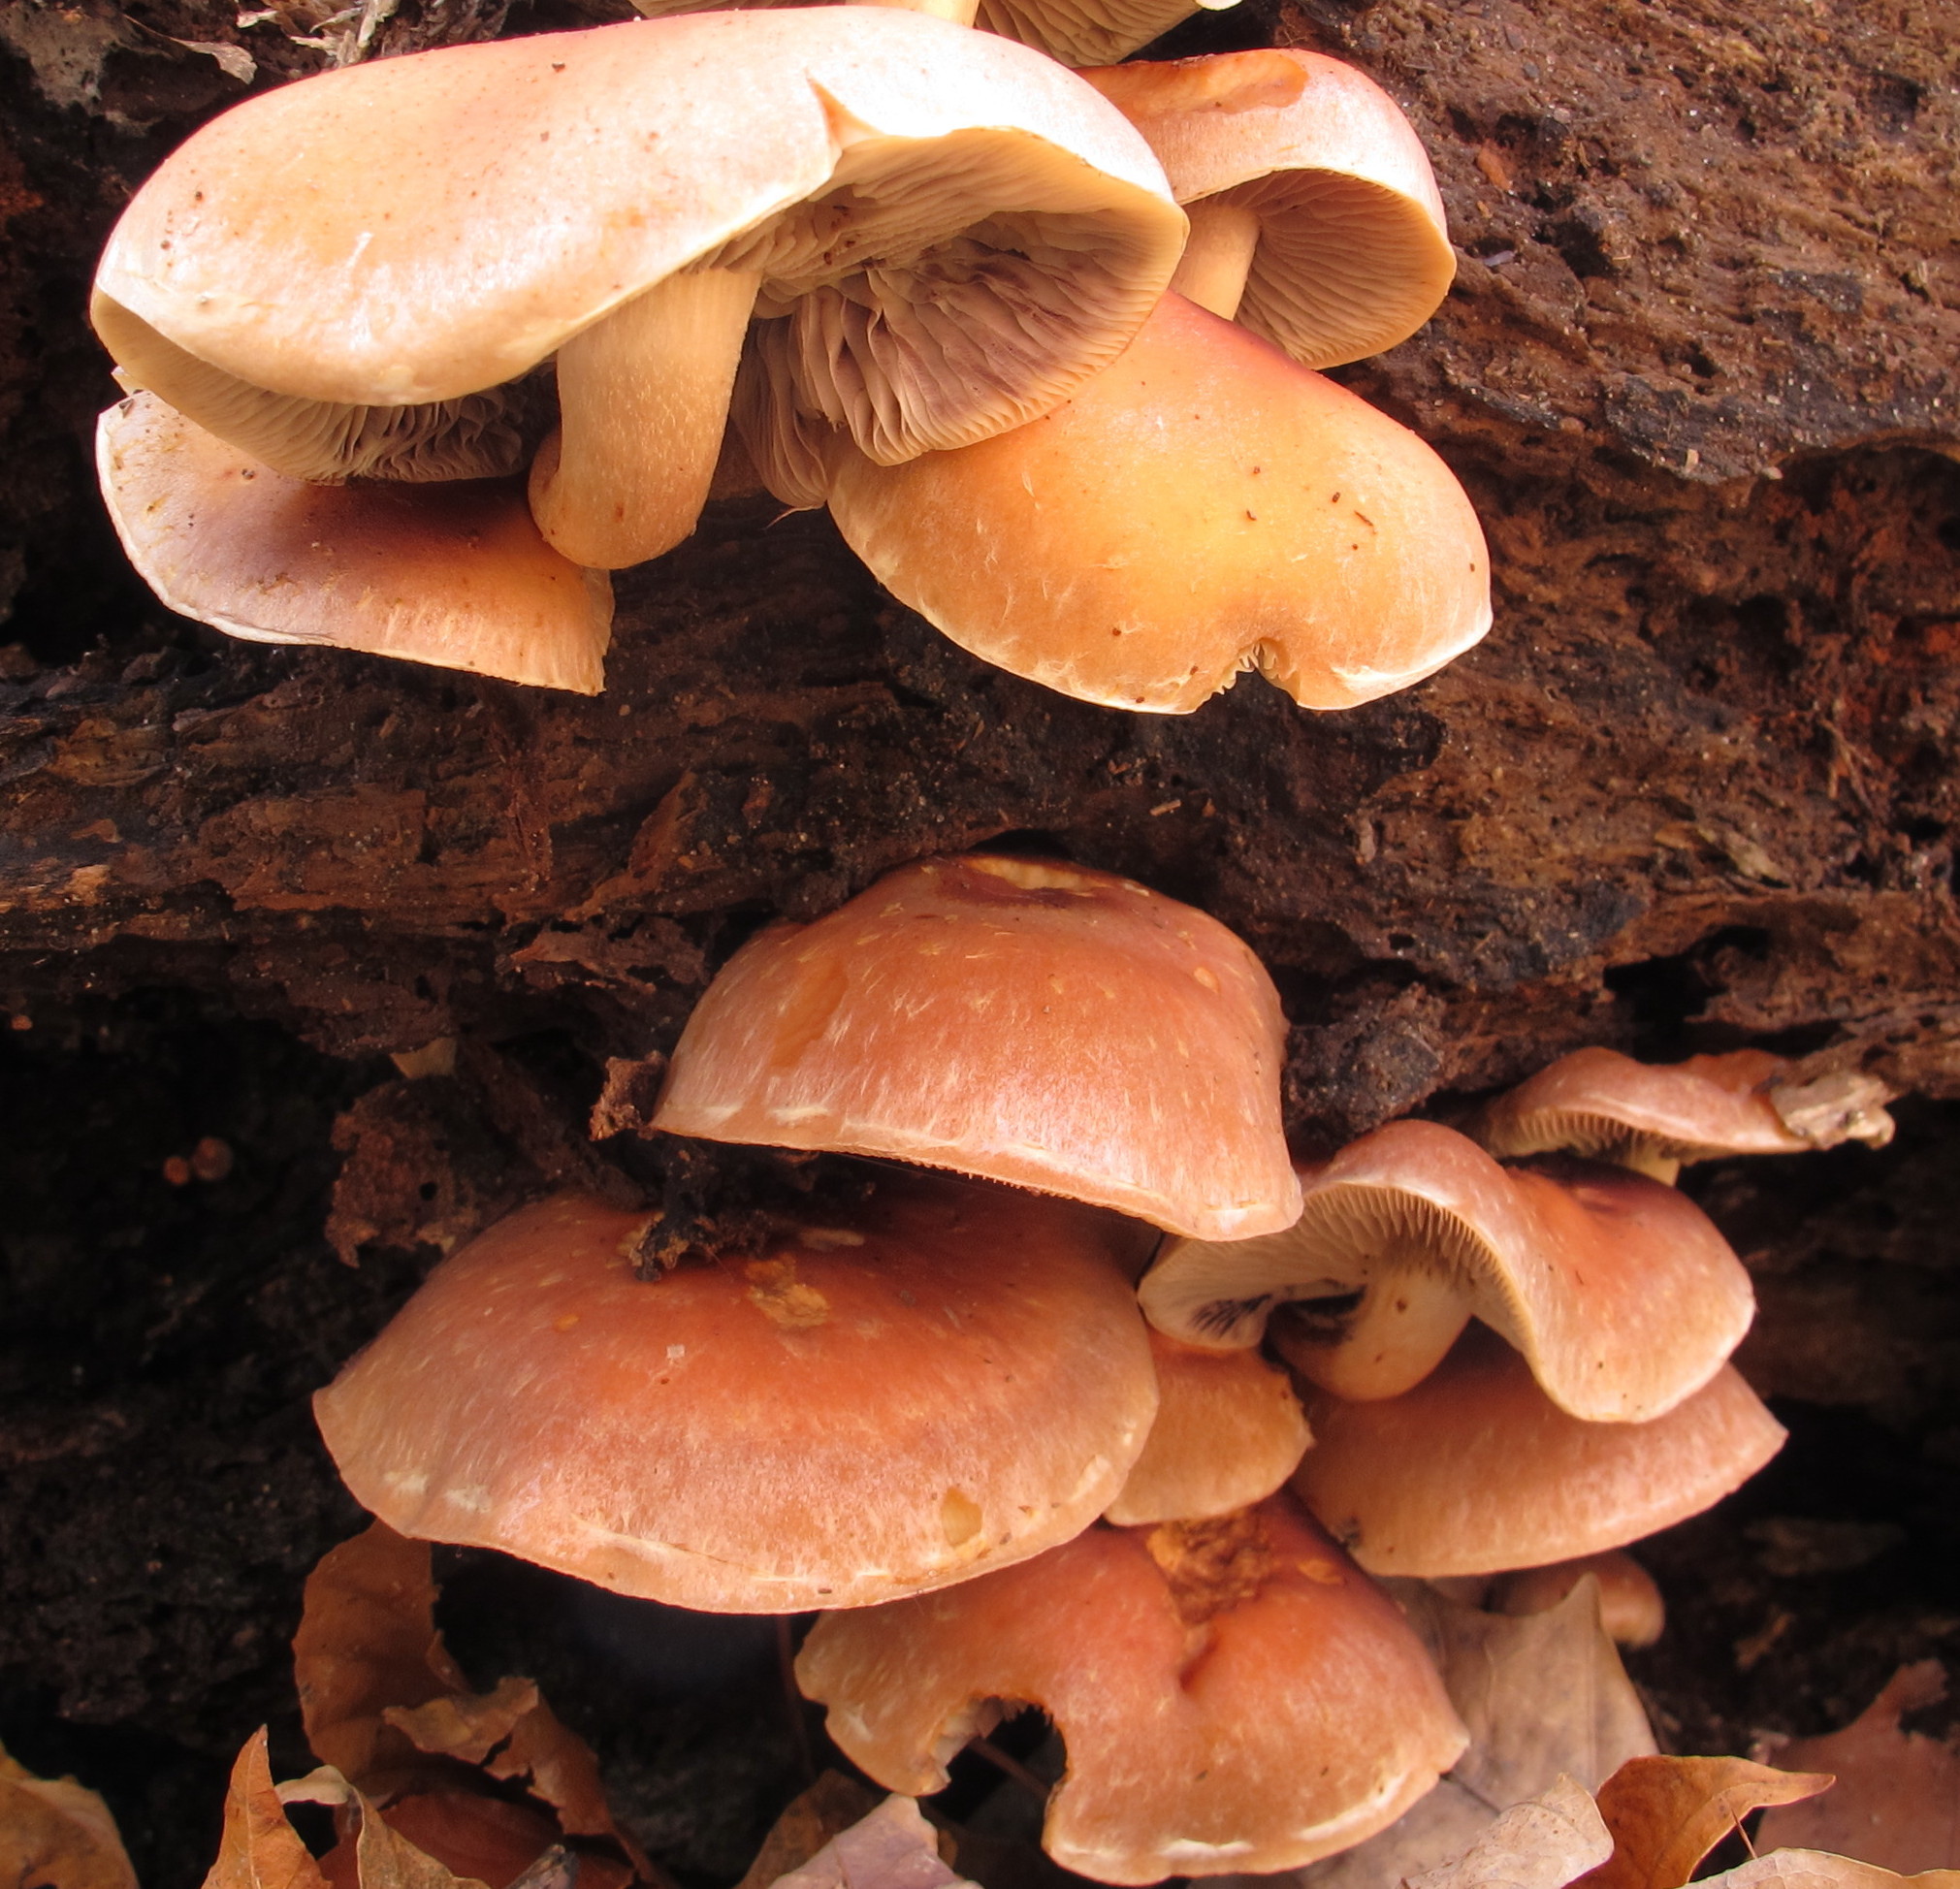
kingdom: Fungi
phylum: Basidiomycota
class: Agaricomycetes
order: Agaricales
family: Strophariaceae
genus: Hypholoma
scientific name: Hypholoma lateritium
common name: Brick caps
